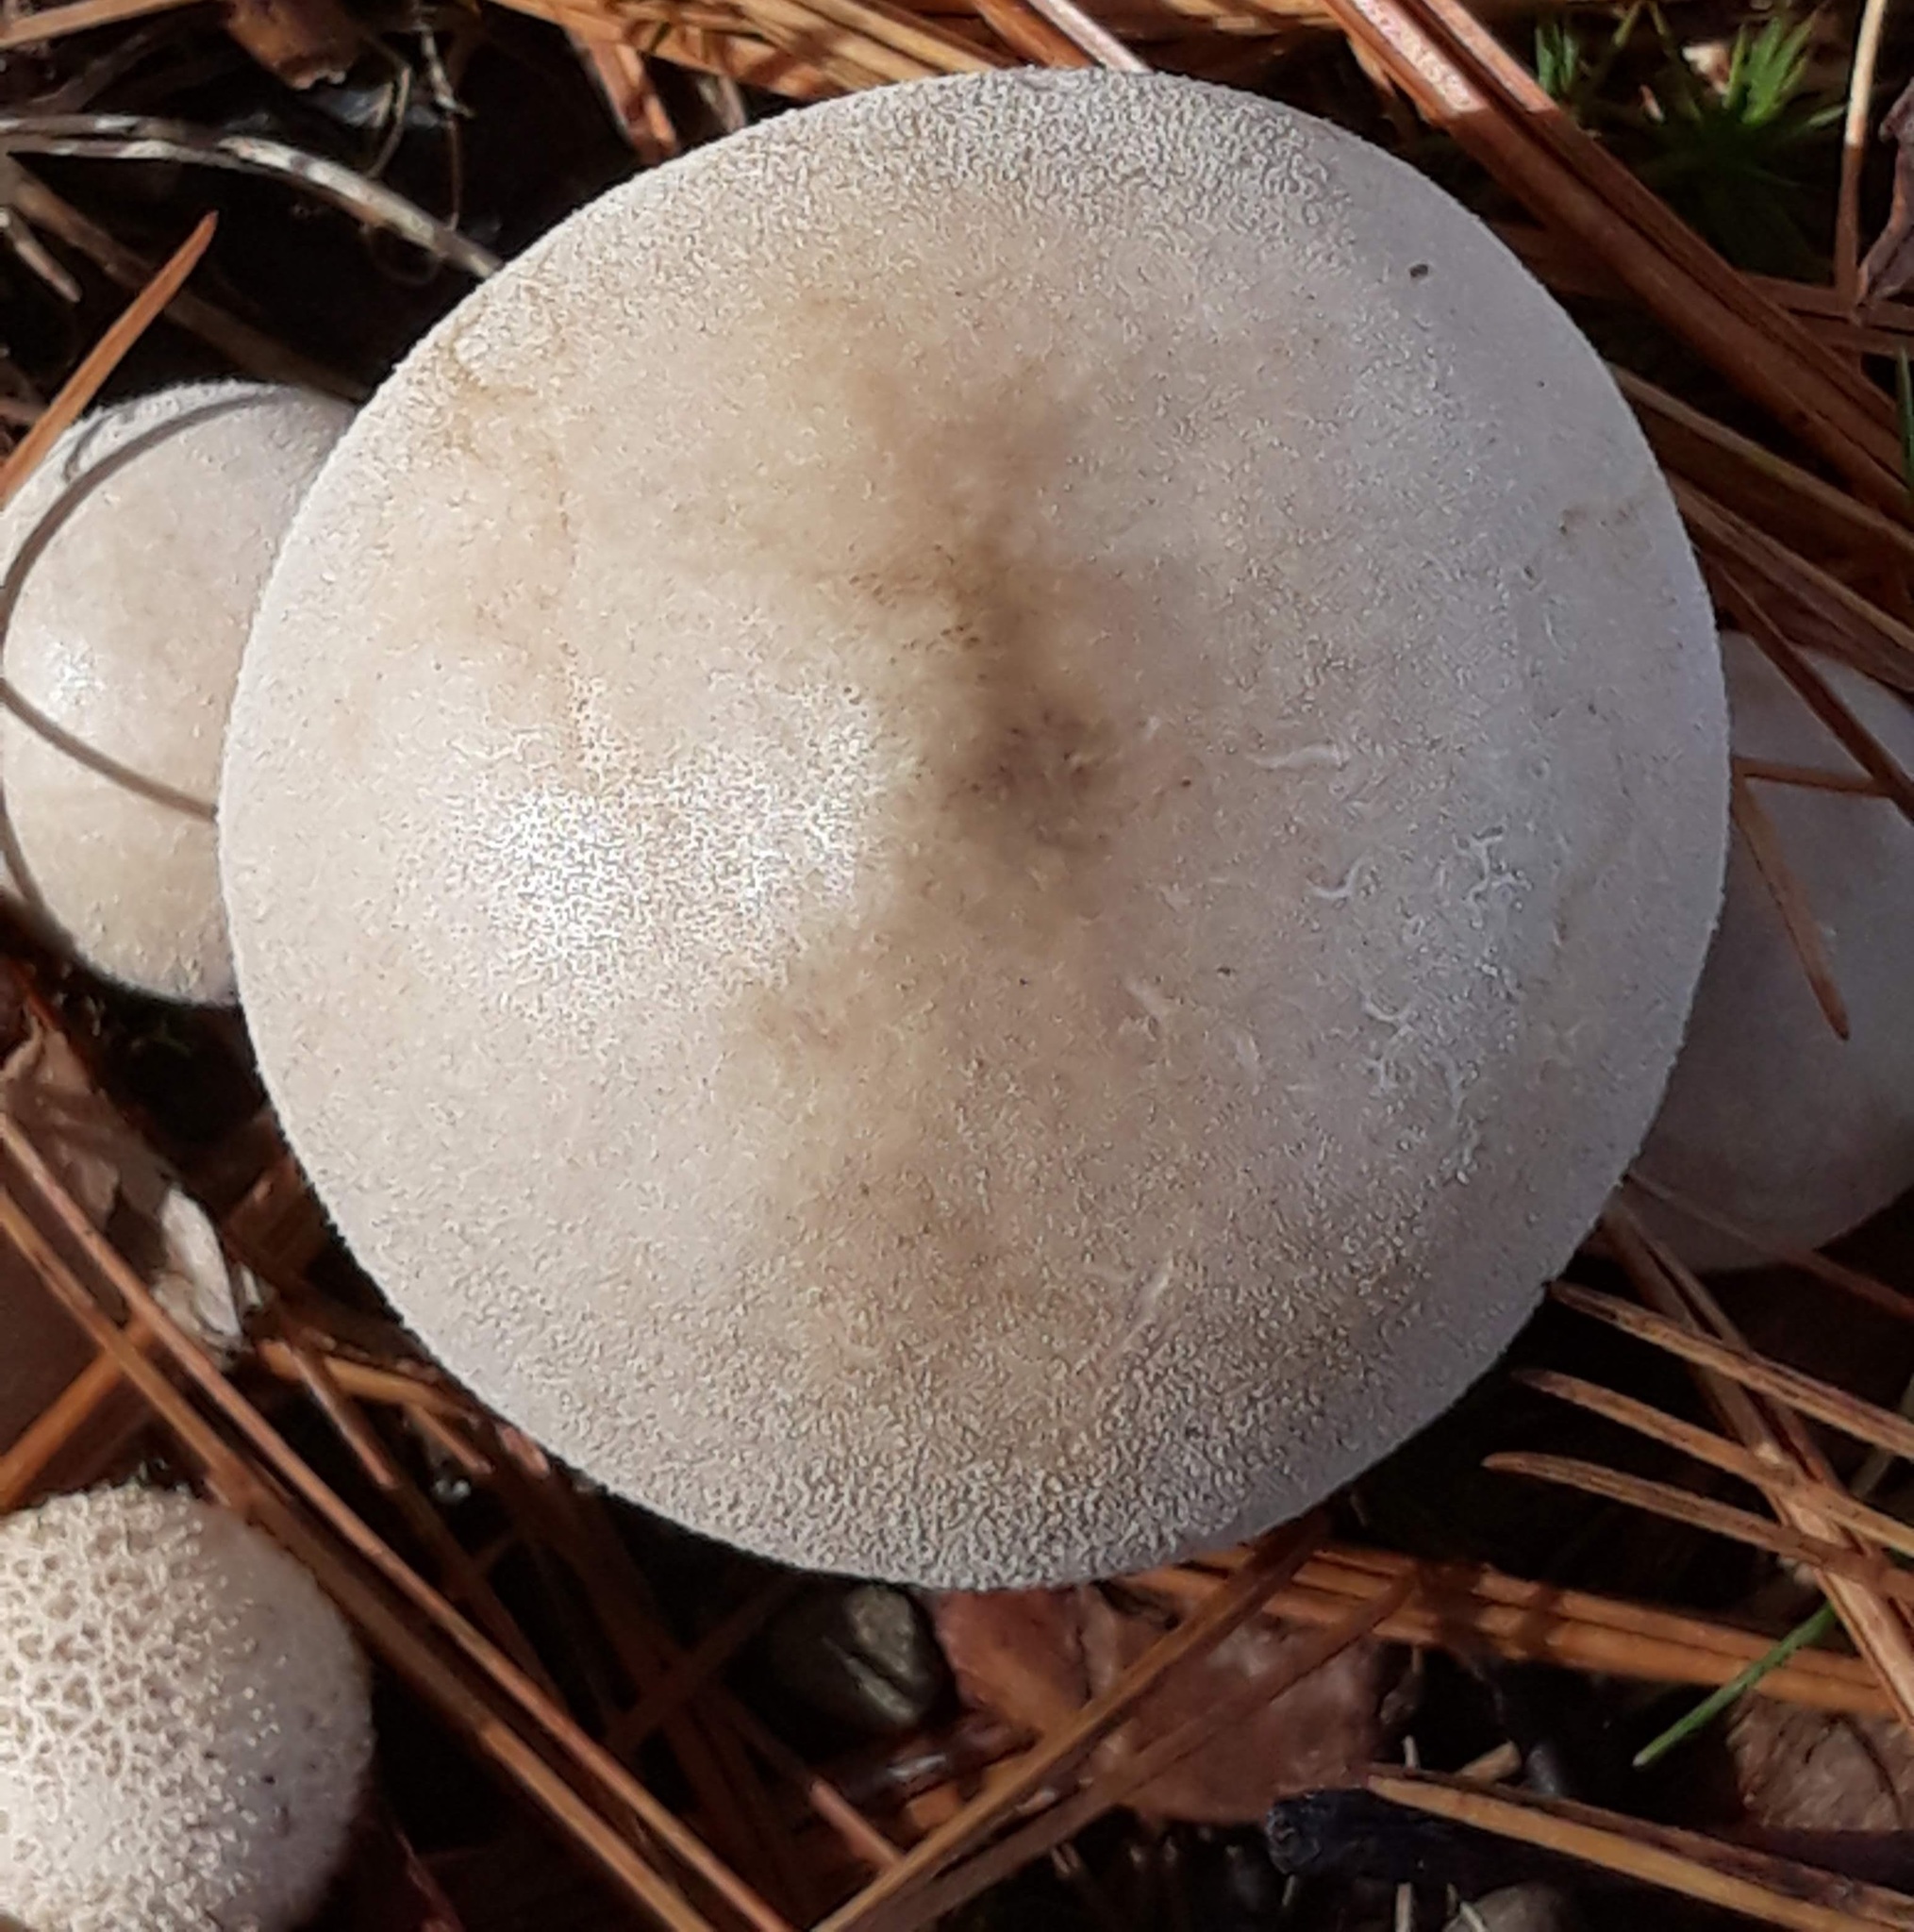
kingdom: Fungi
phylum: Basidiomycota
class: Agaricomycetes
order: Agaricales
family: Lycoperdaceae
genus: Lycoperdon
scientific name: Lycoperdon perlatum
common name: Common puffball
